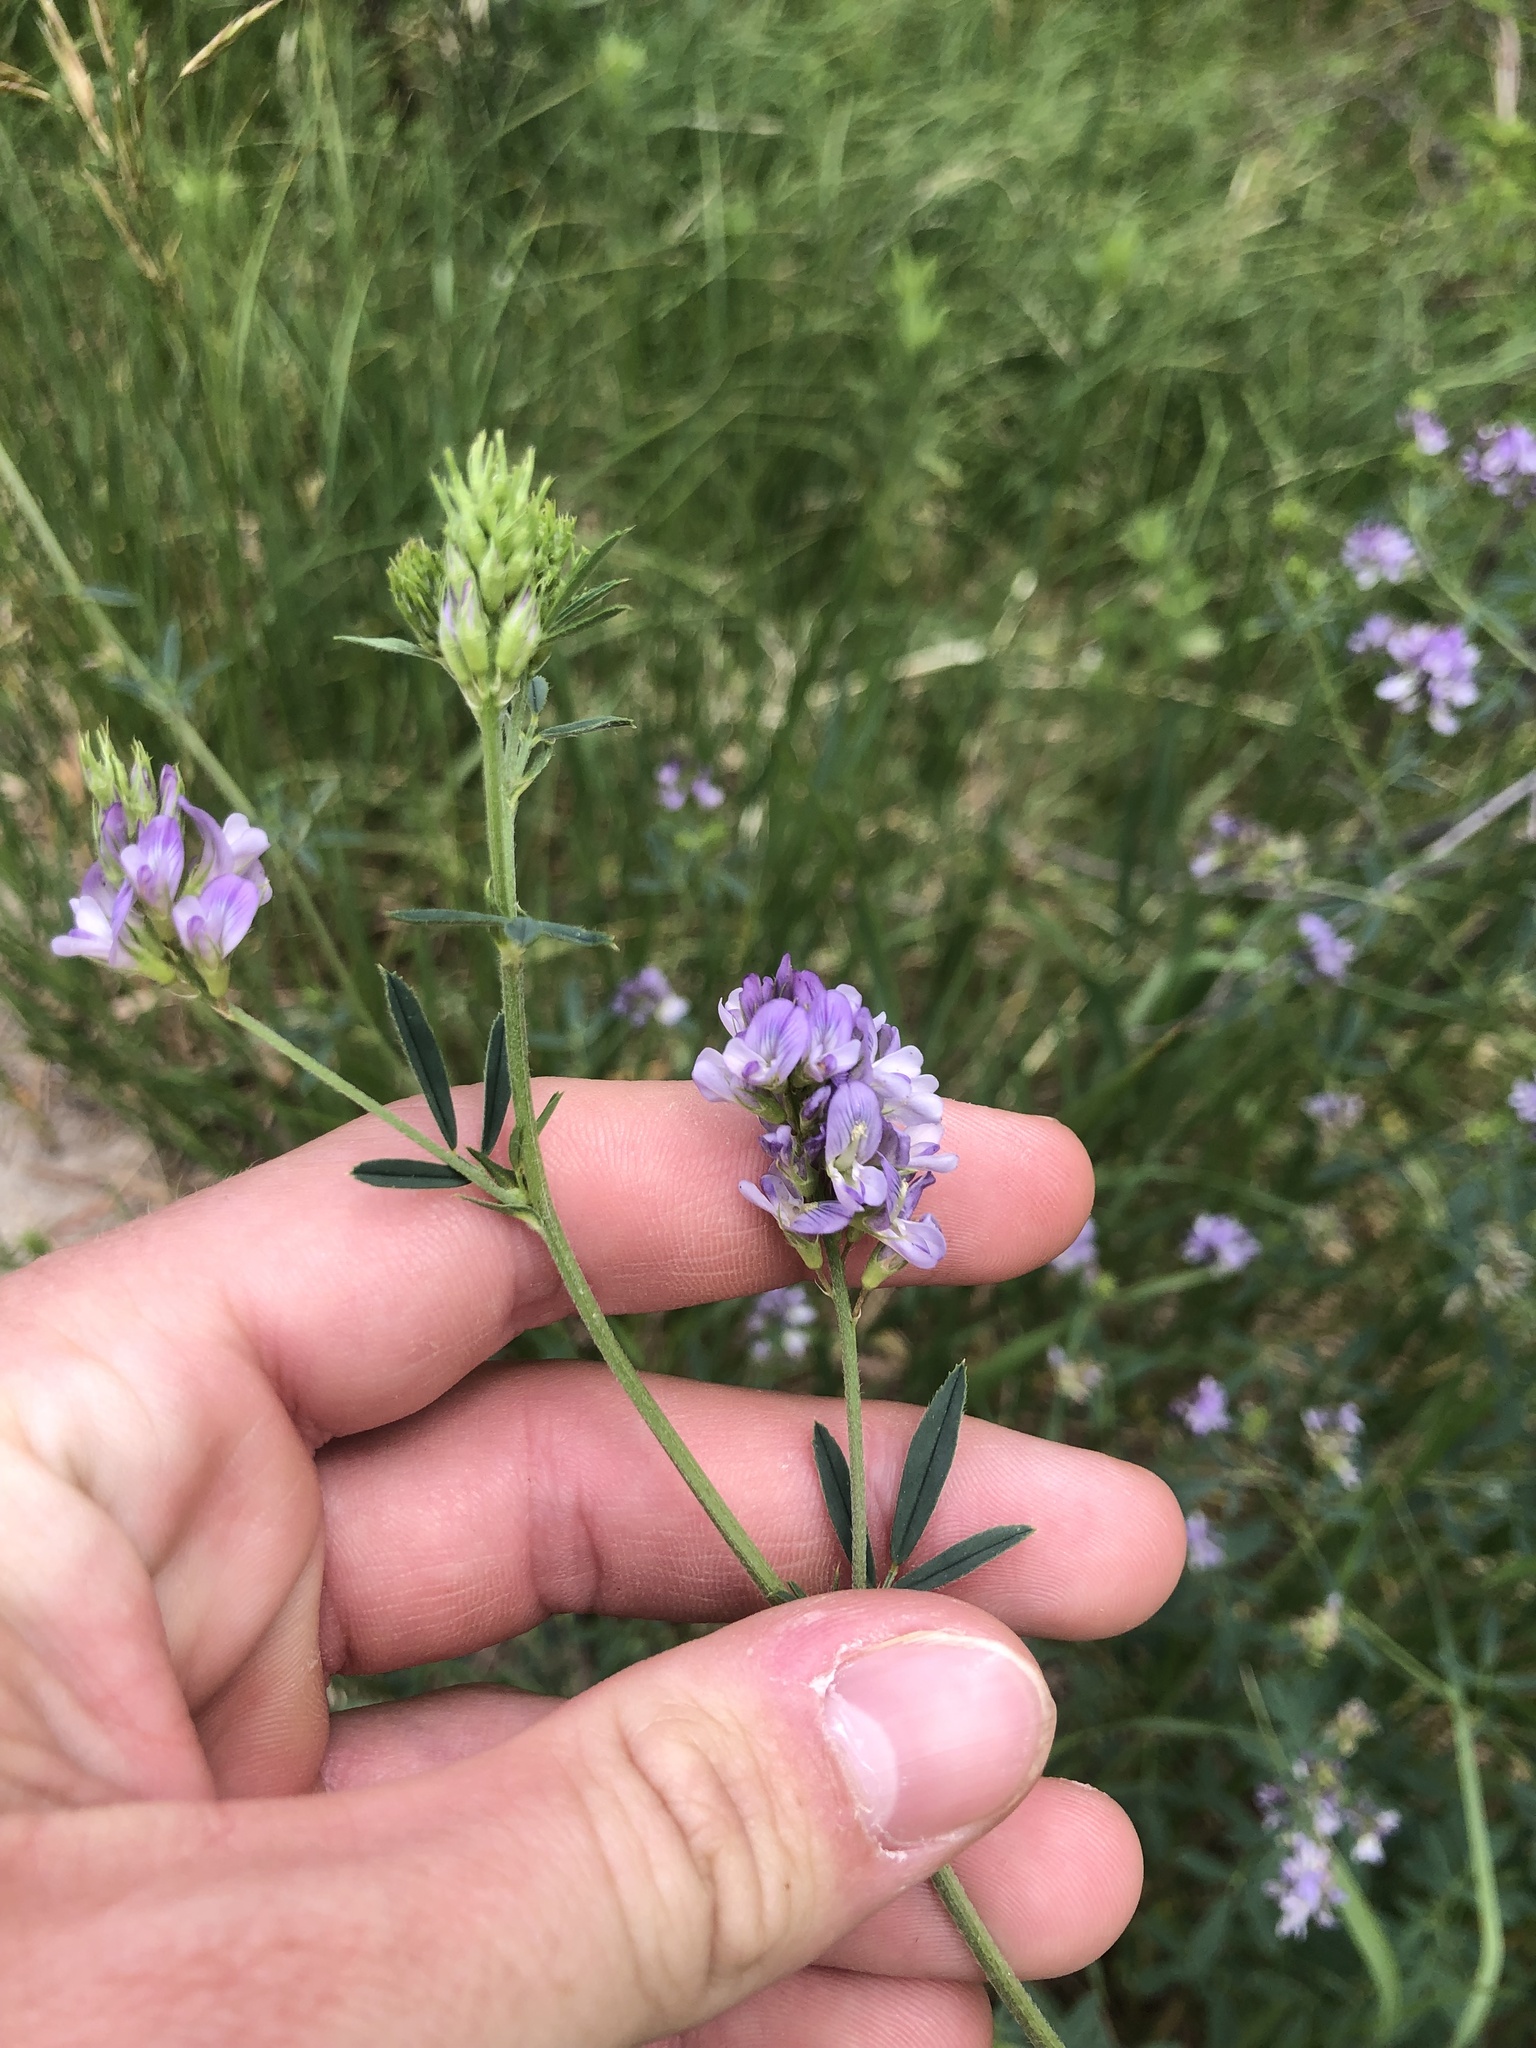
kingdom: Plantae
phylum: Tracheophyta
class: Magnoliopsida
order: Fabales
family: Fabaceae
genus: Medicago
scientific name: Medicago sativa
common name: Alfalfa
